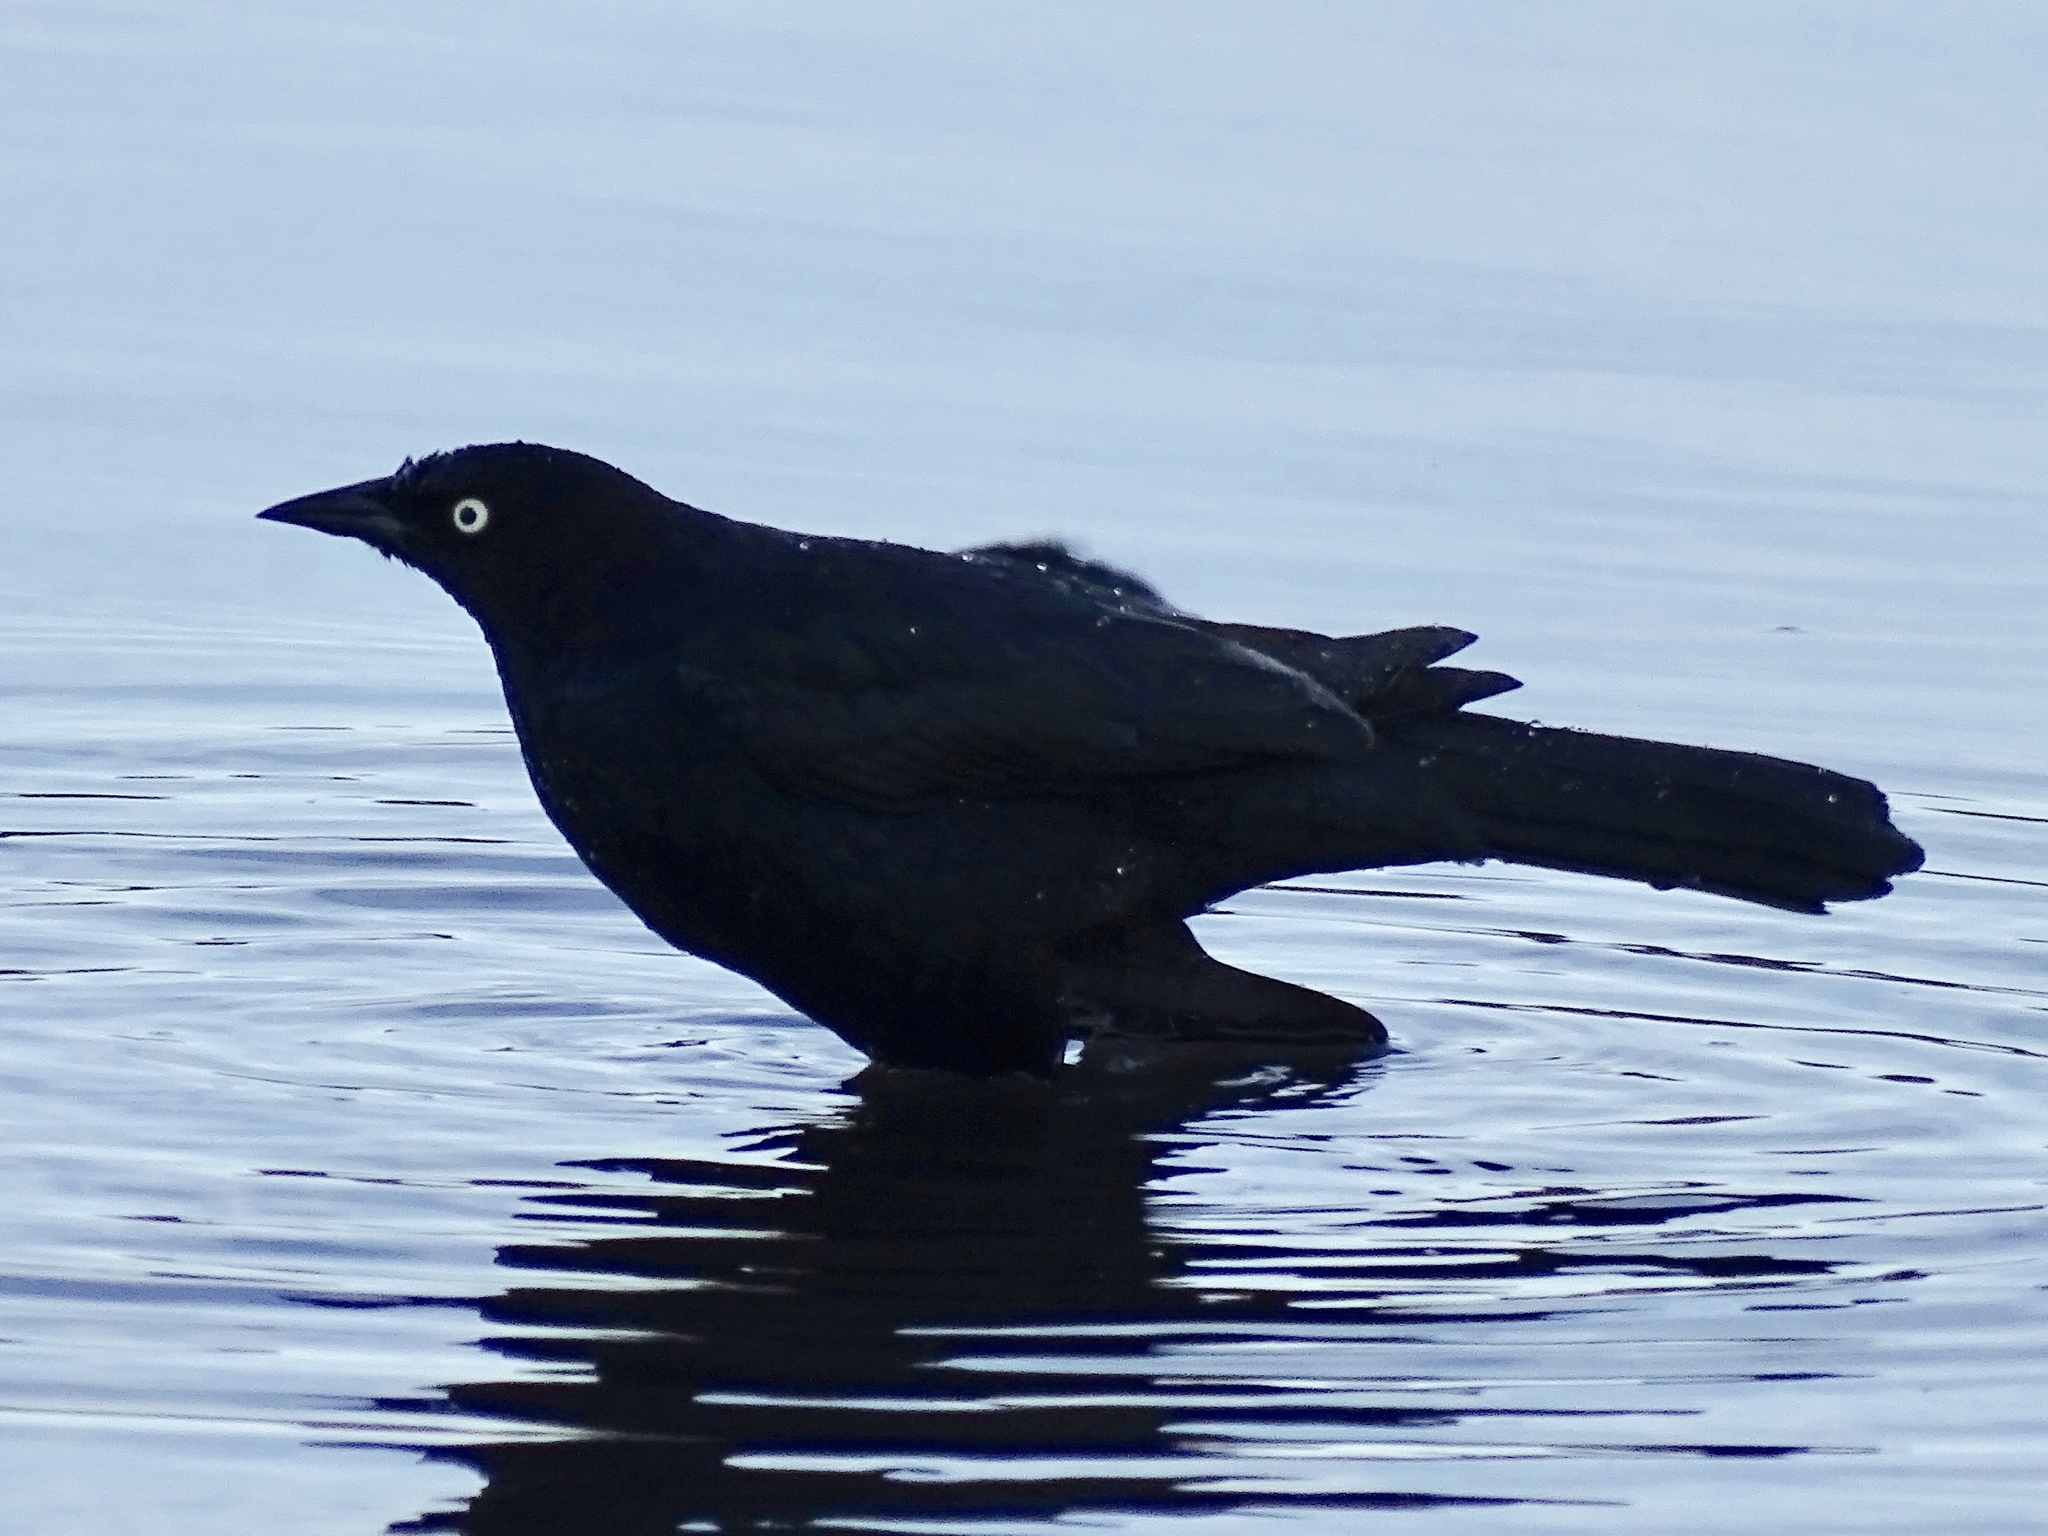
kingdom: Animalia
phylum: Chordata
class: Aves
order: Passeriformes
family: Icteridae
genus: Euphagus
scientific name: Euphagus cyanocephalus
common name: Brewer's blackbird
